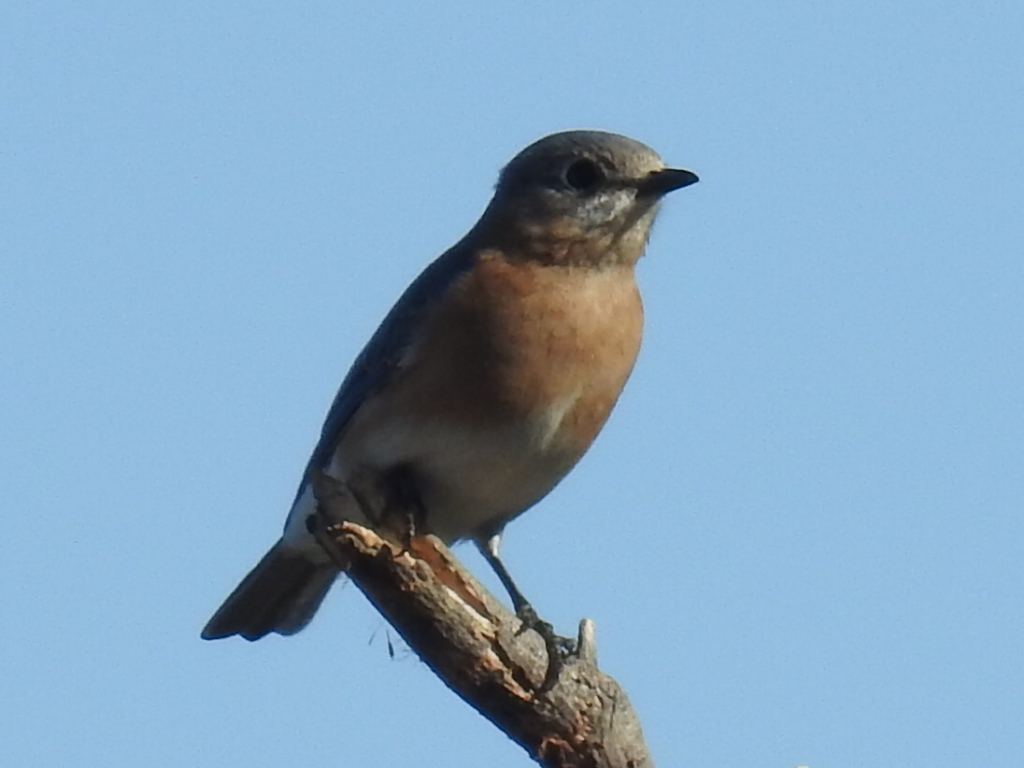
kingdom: Animalia
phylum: Chordata
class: Aves
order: Passeriformes
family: Turdidae
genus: Sialia
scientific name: Sialia sialis
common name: Eastern bluebird
